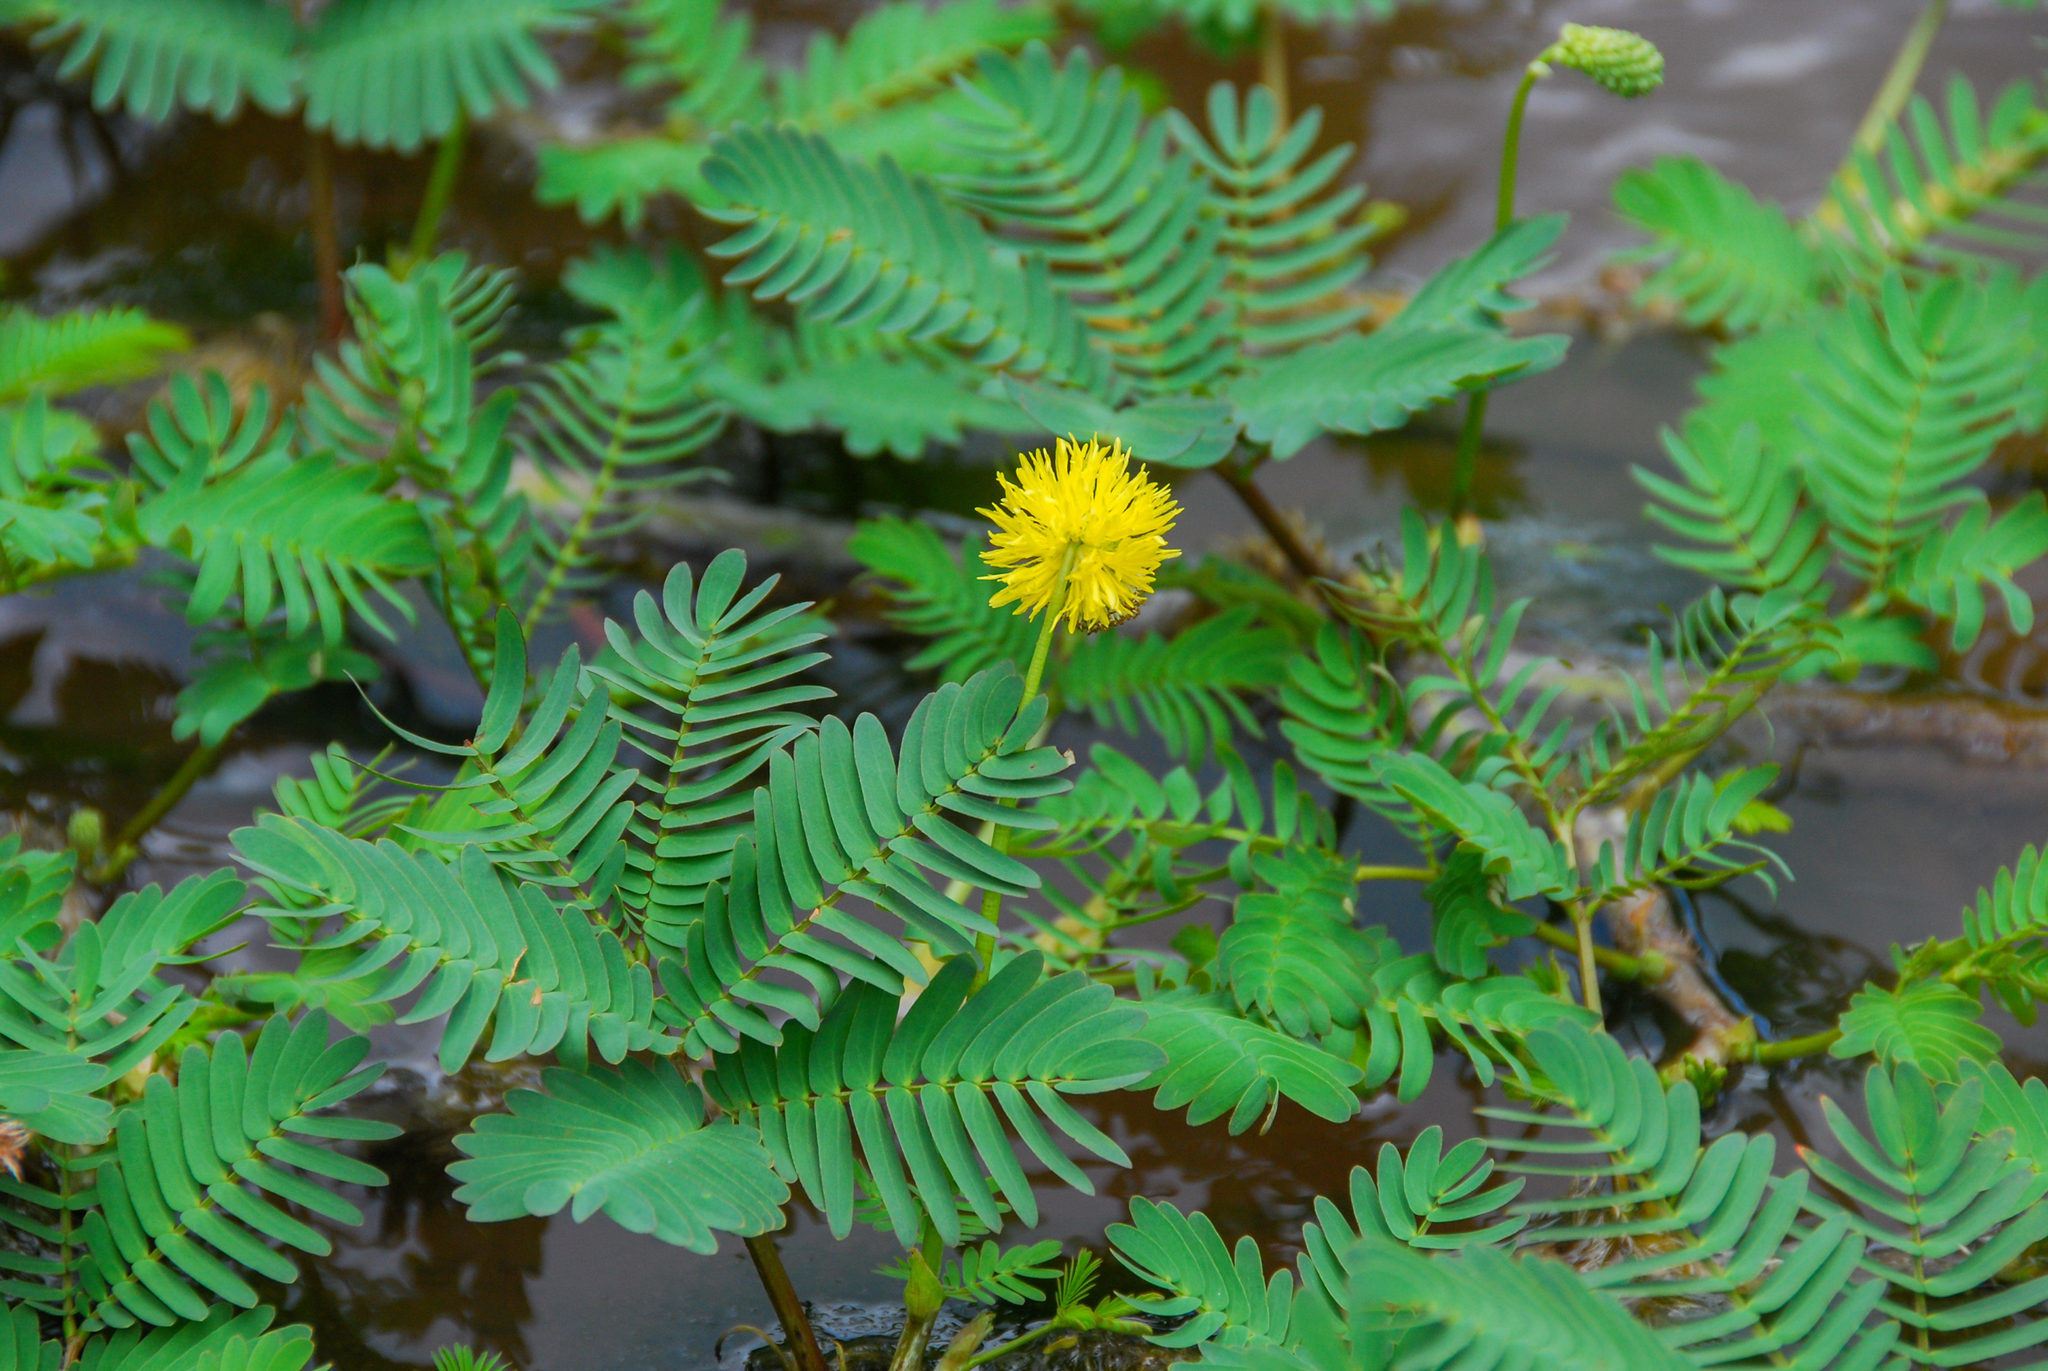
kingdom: Plantae
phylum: Tracheophyta
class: Magnoliopsida
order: Fabales
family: Fabaceae
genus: Neptunia
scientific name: Neptunia prostrata
